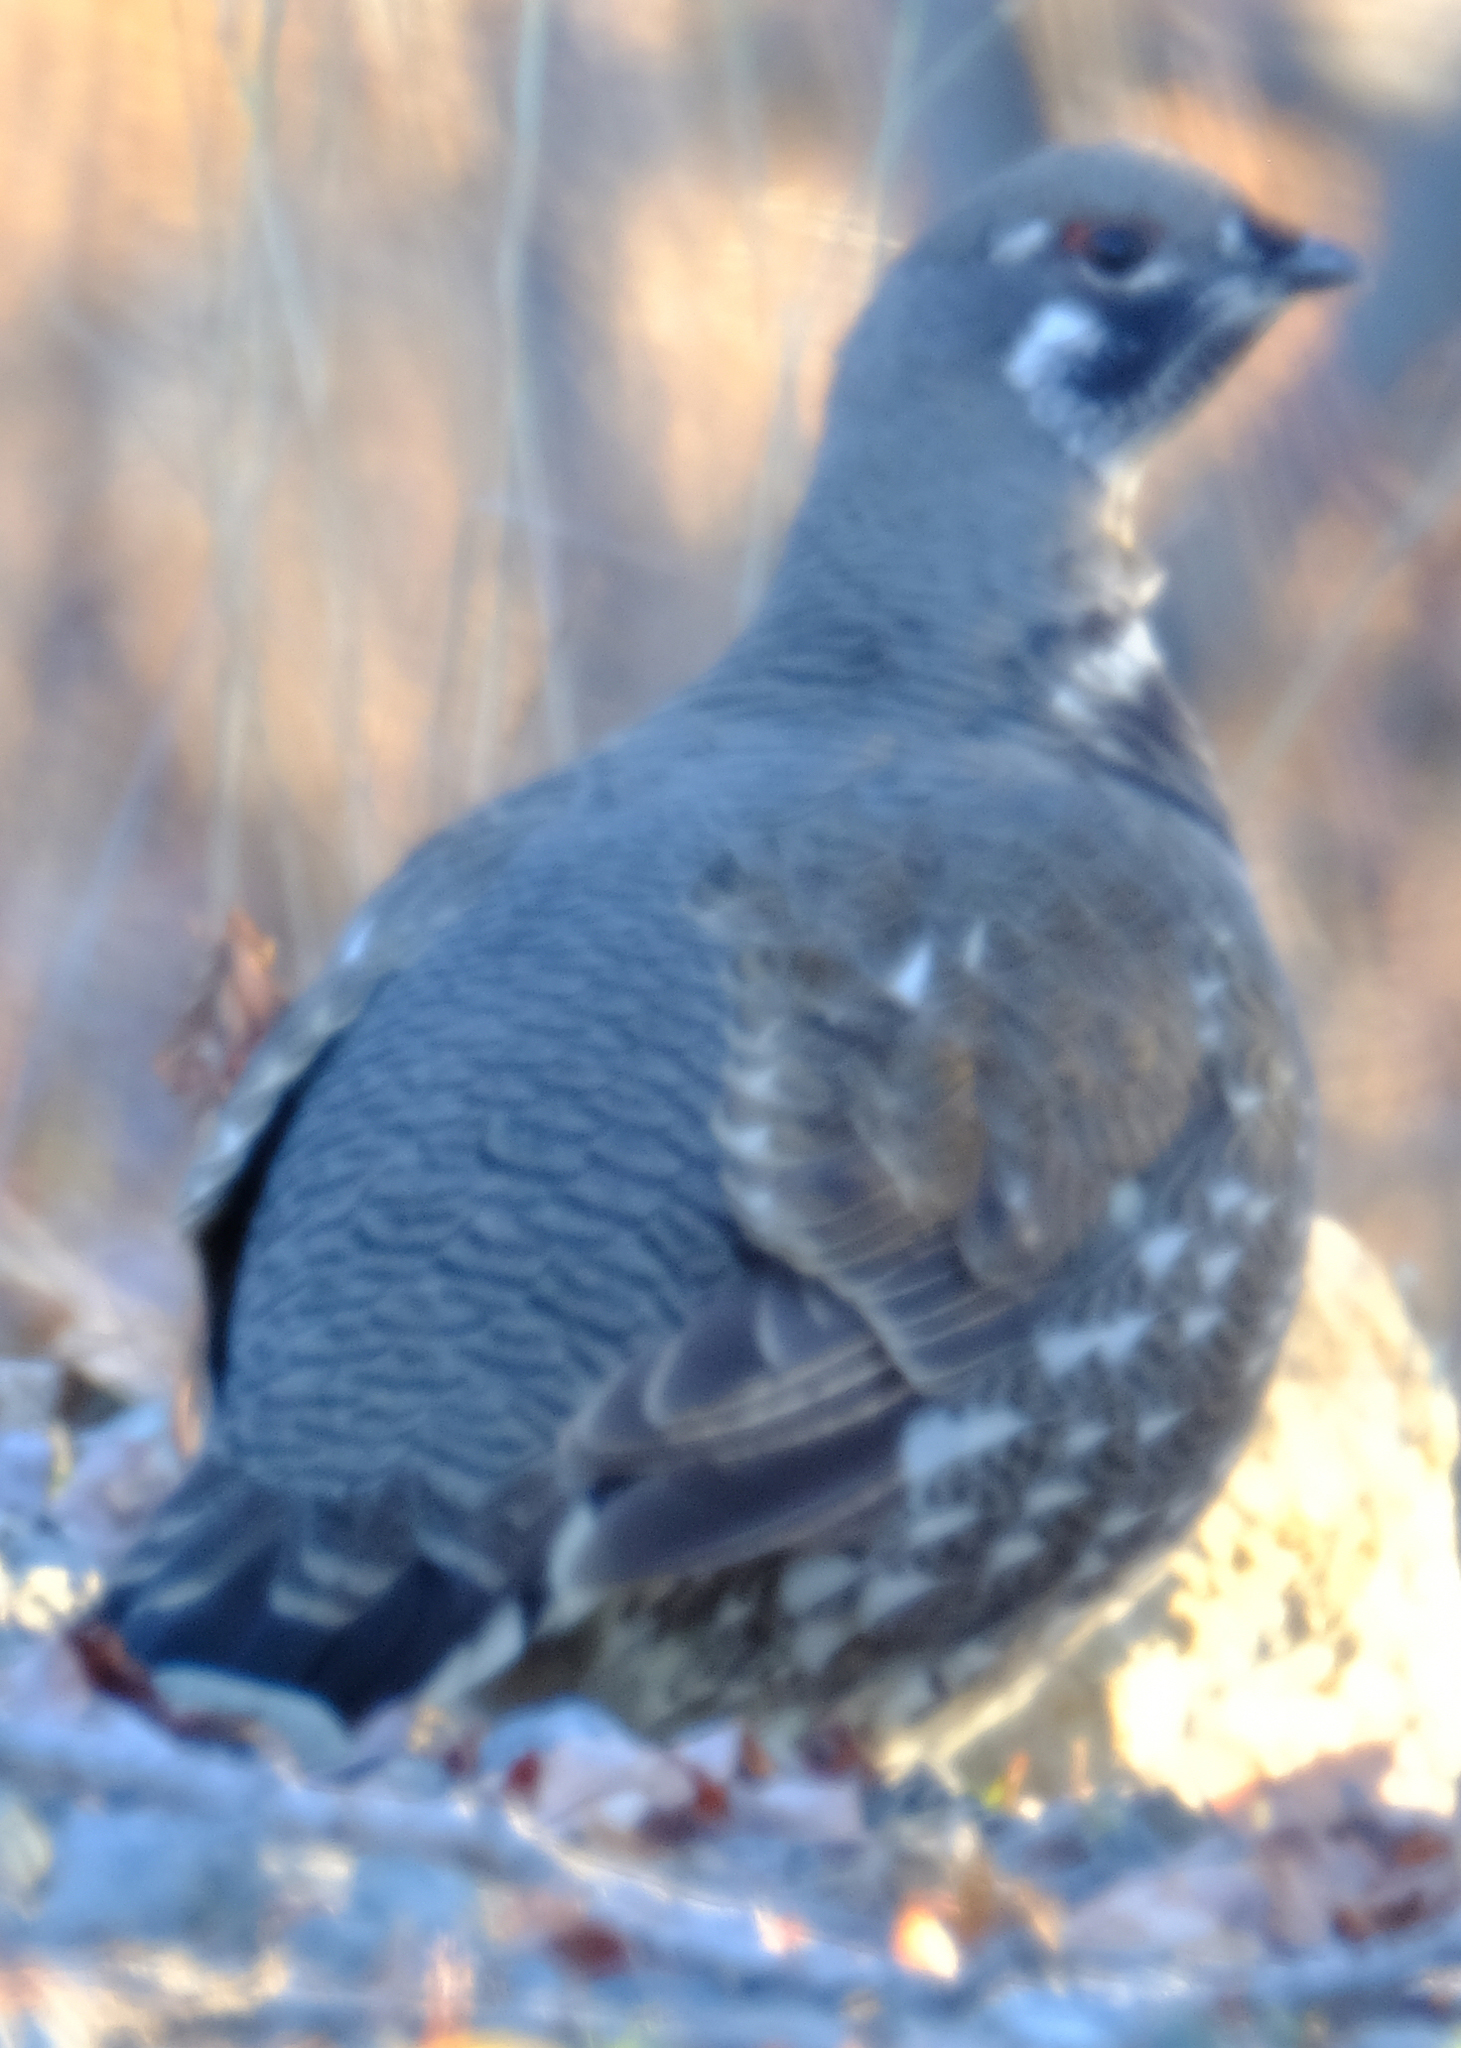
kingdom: Animalia
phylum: Chordata
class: Aves
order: Galliformes
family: Phasianidae
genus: Canachites
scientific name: Canachites canadensis
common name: Spruce grouse
